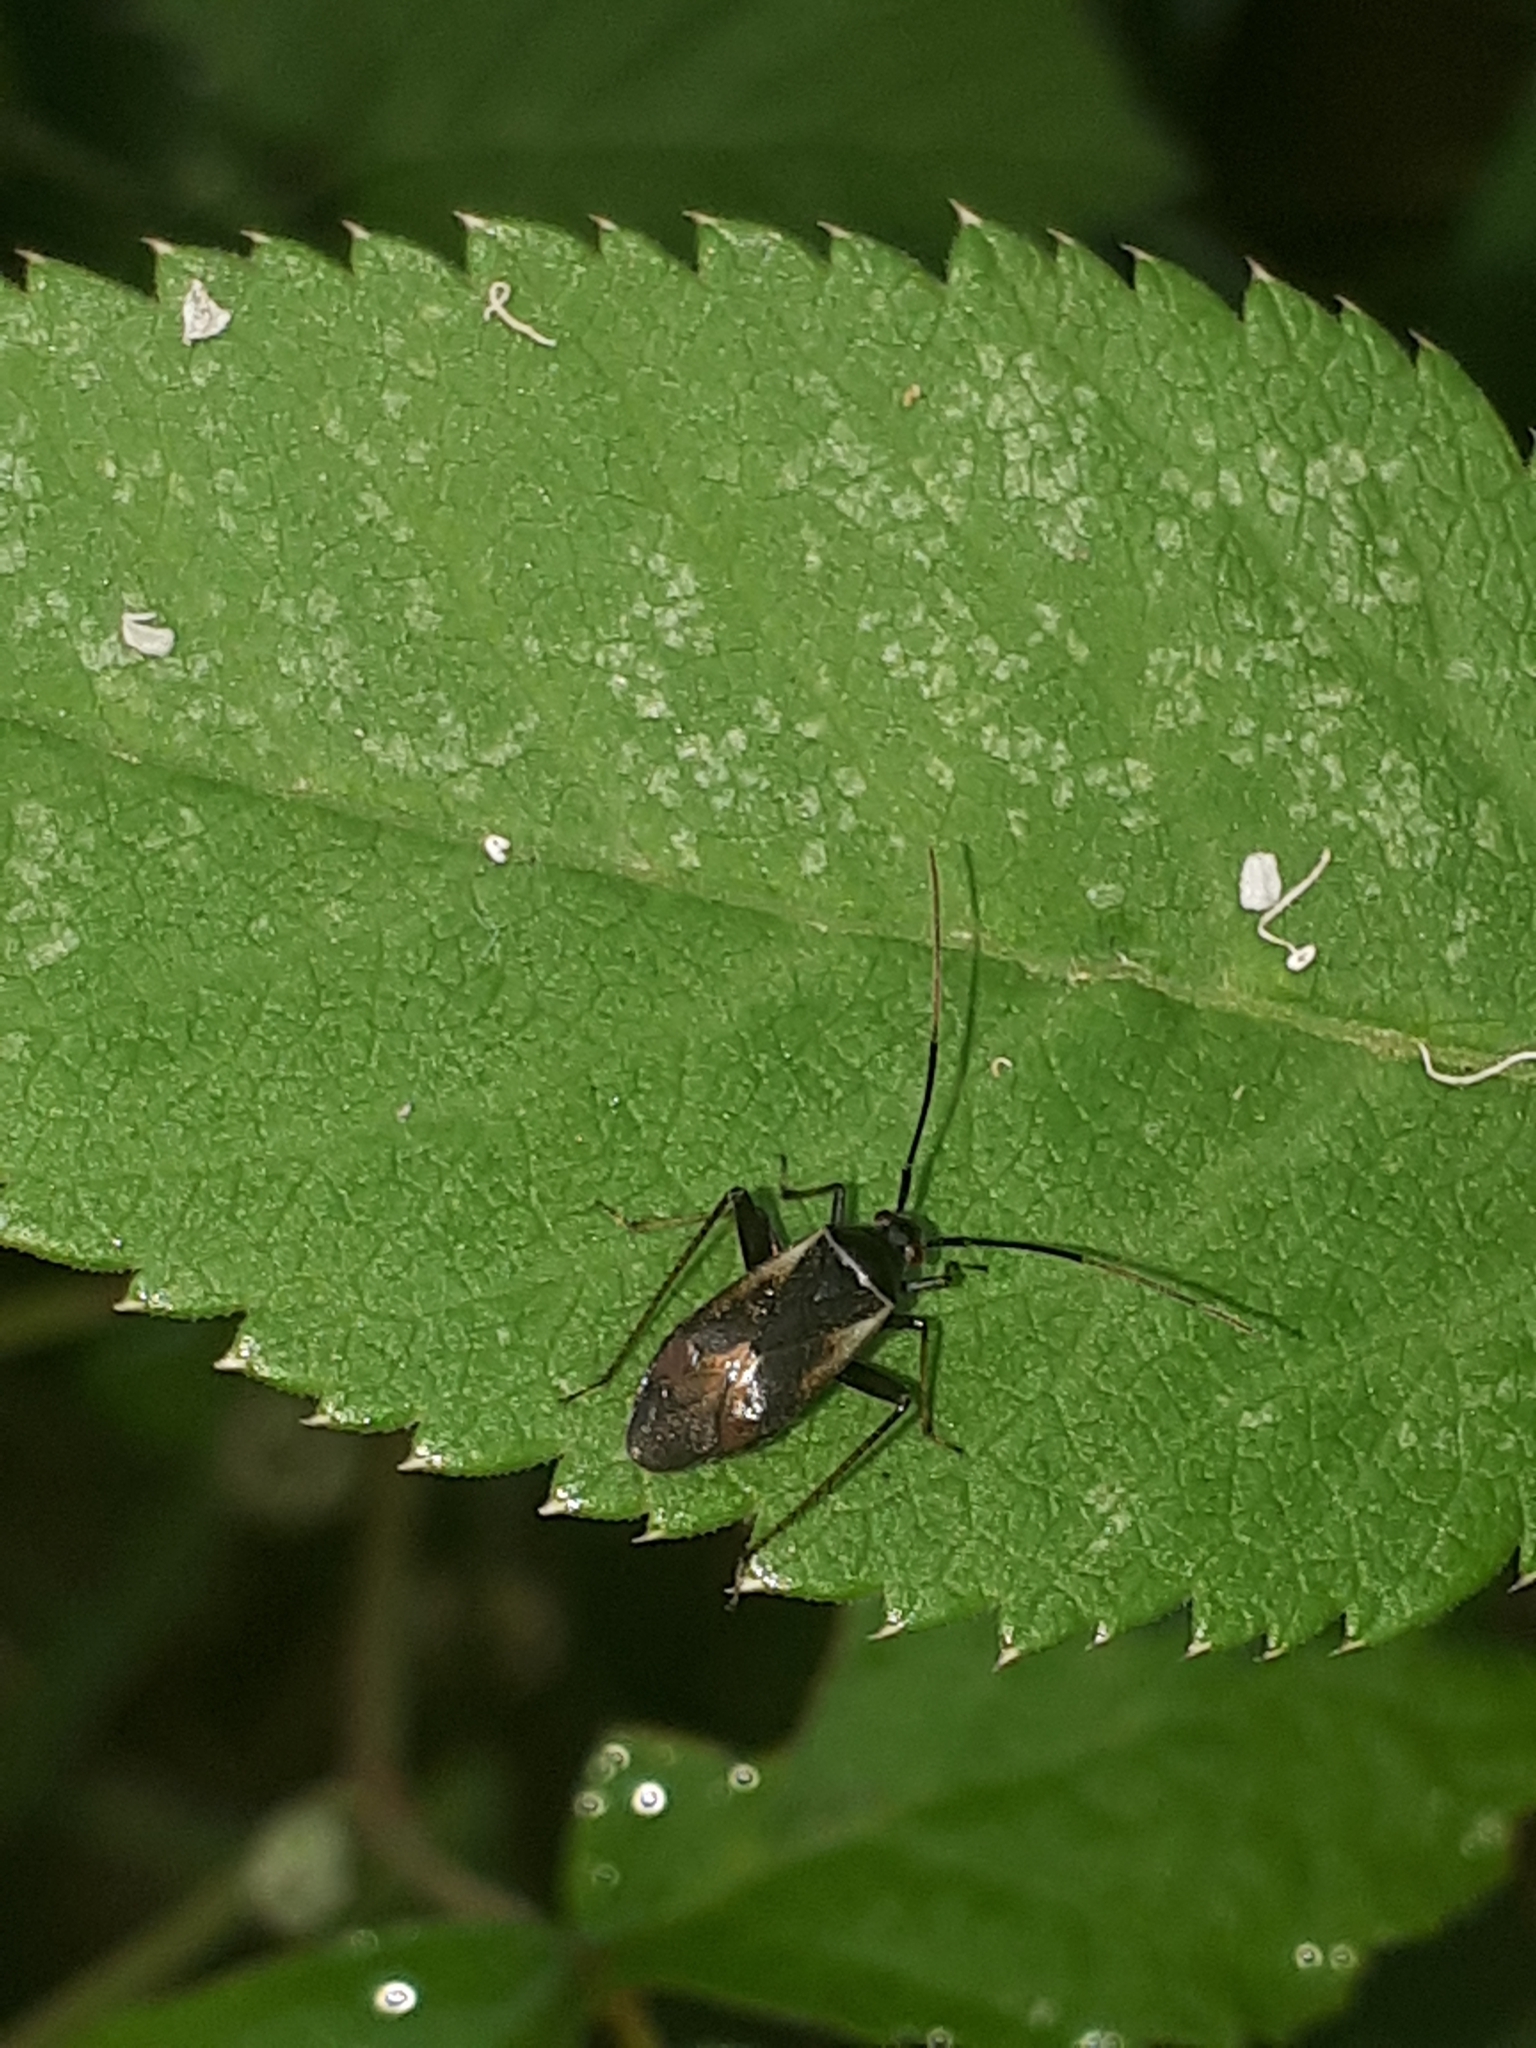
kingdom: Animalia
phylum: Arthropoda
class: Insecta
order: Hemiptera
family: Miridae
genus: Adelphocoris
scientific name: Adelphocoris seticornis
